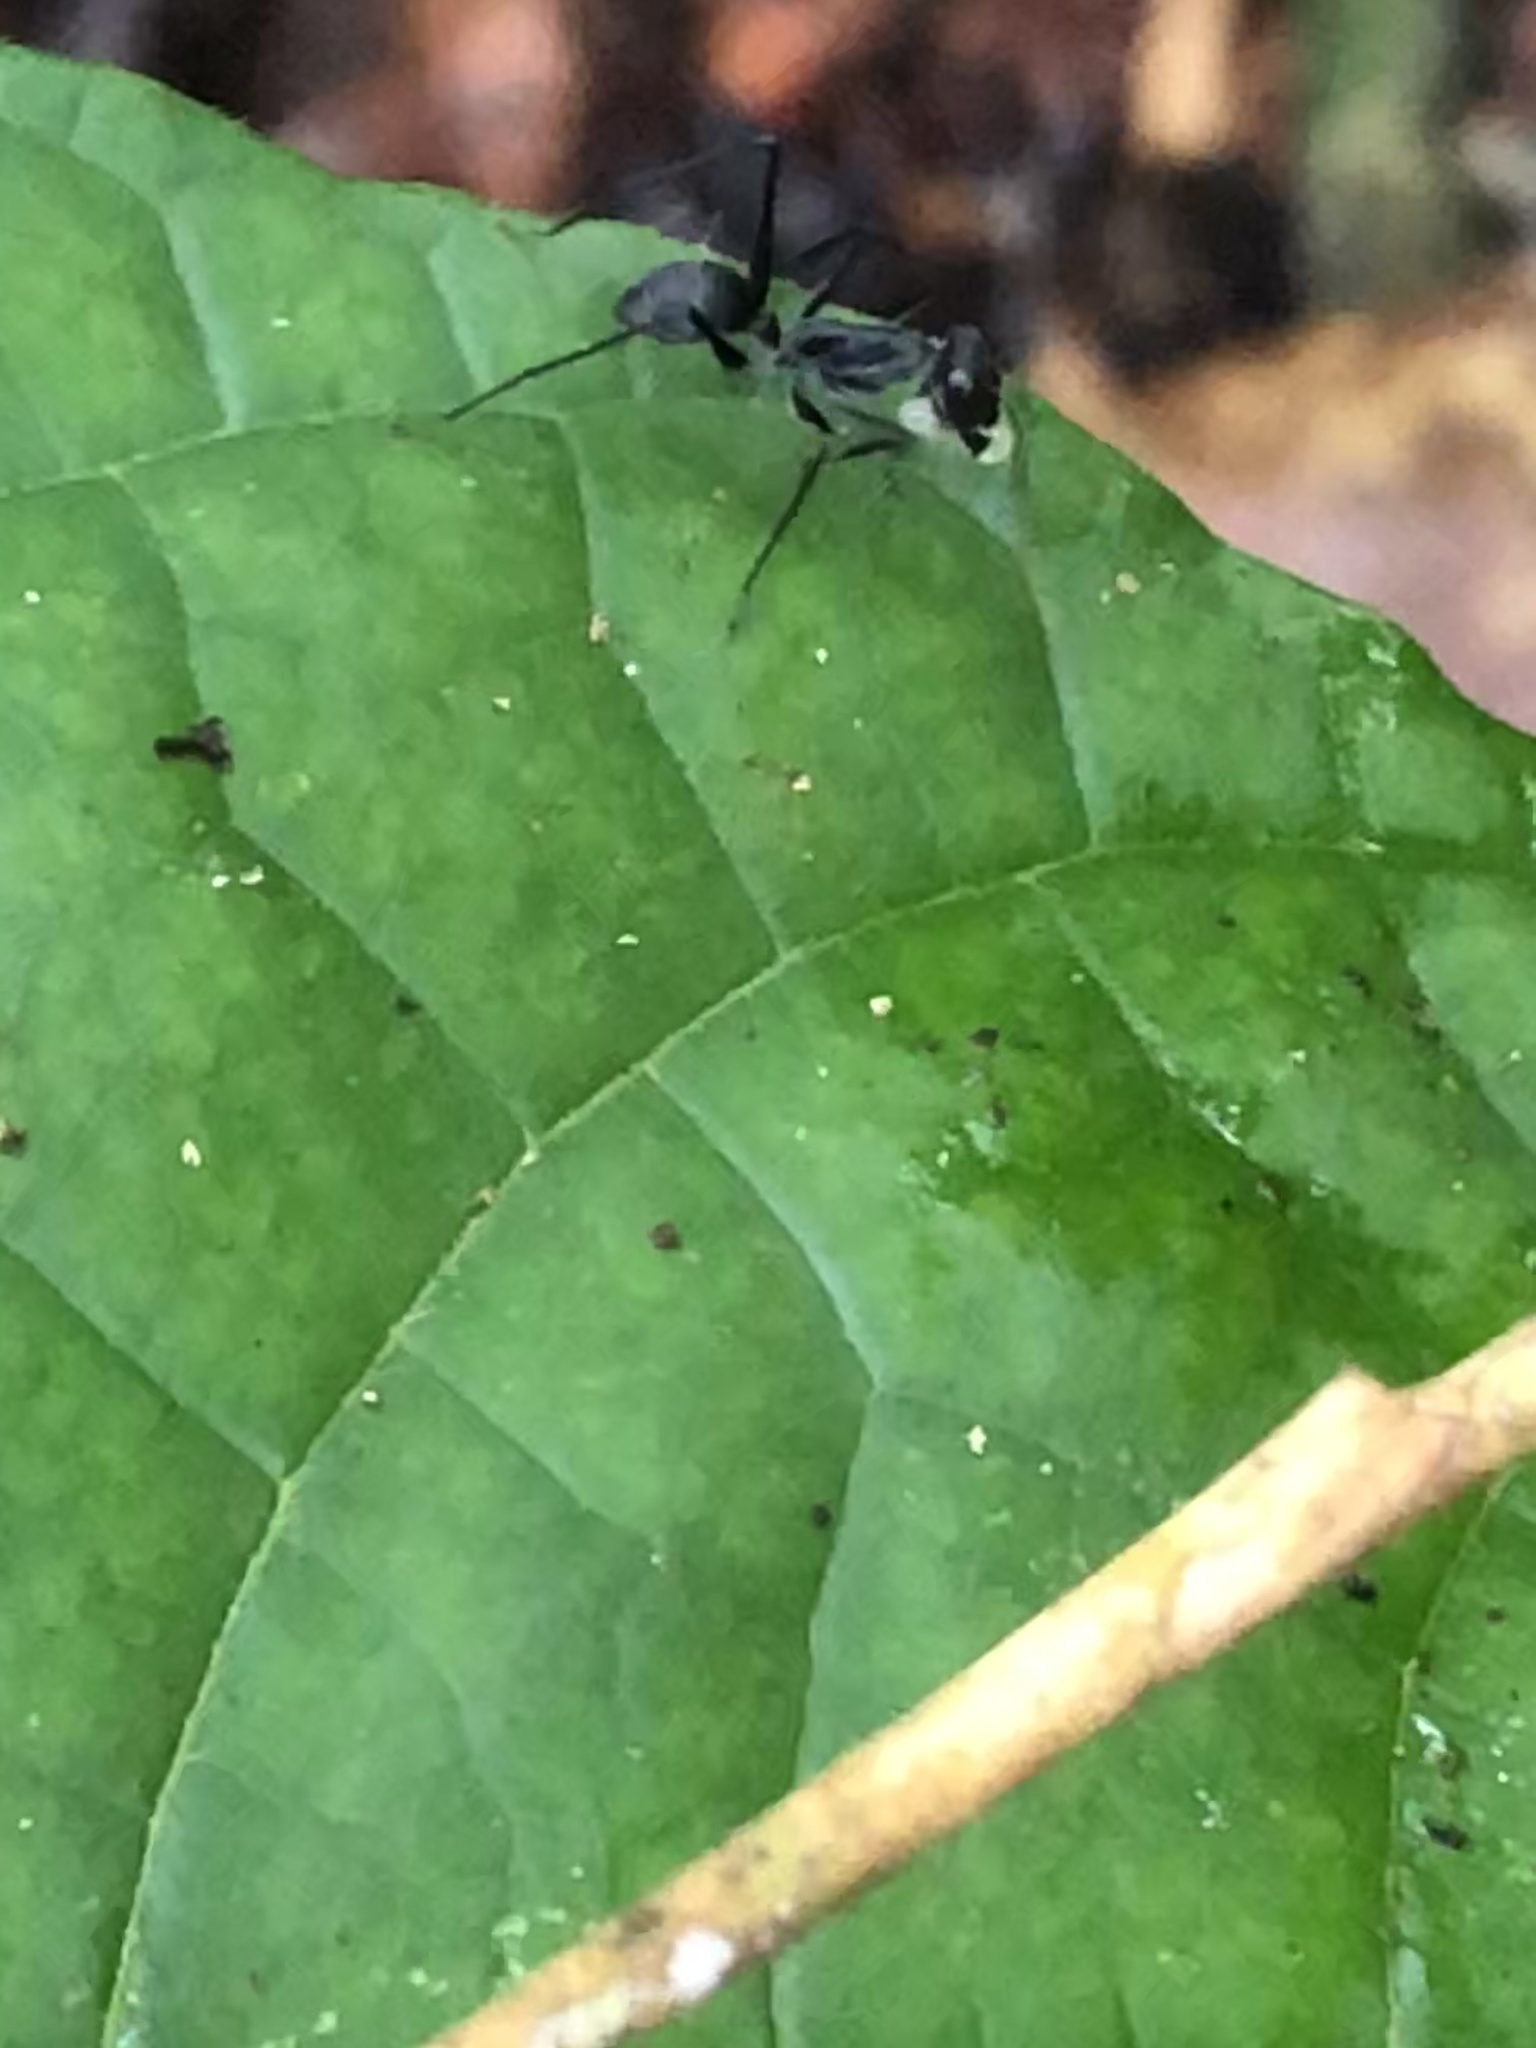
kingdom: Animalia
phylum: Arthropoda
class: Insecta
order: Hymenoptera
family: Formicidae
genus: Gigantiops
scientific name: Gigantiops destructor
